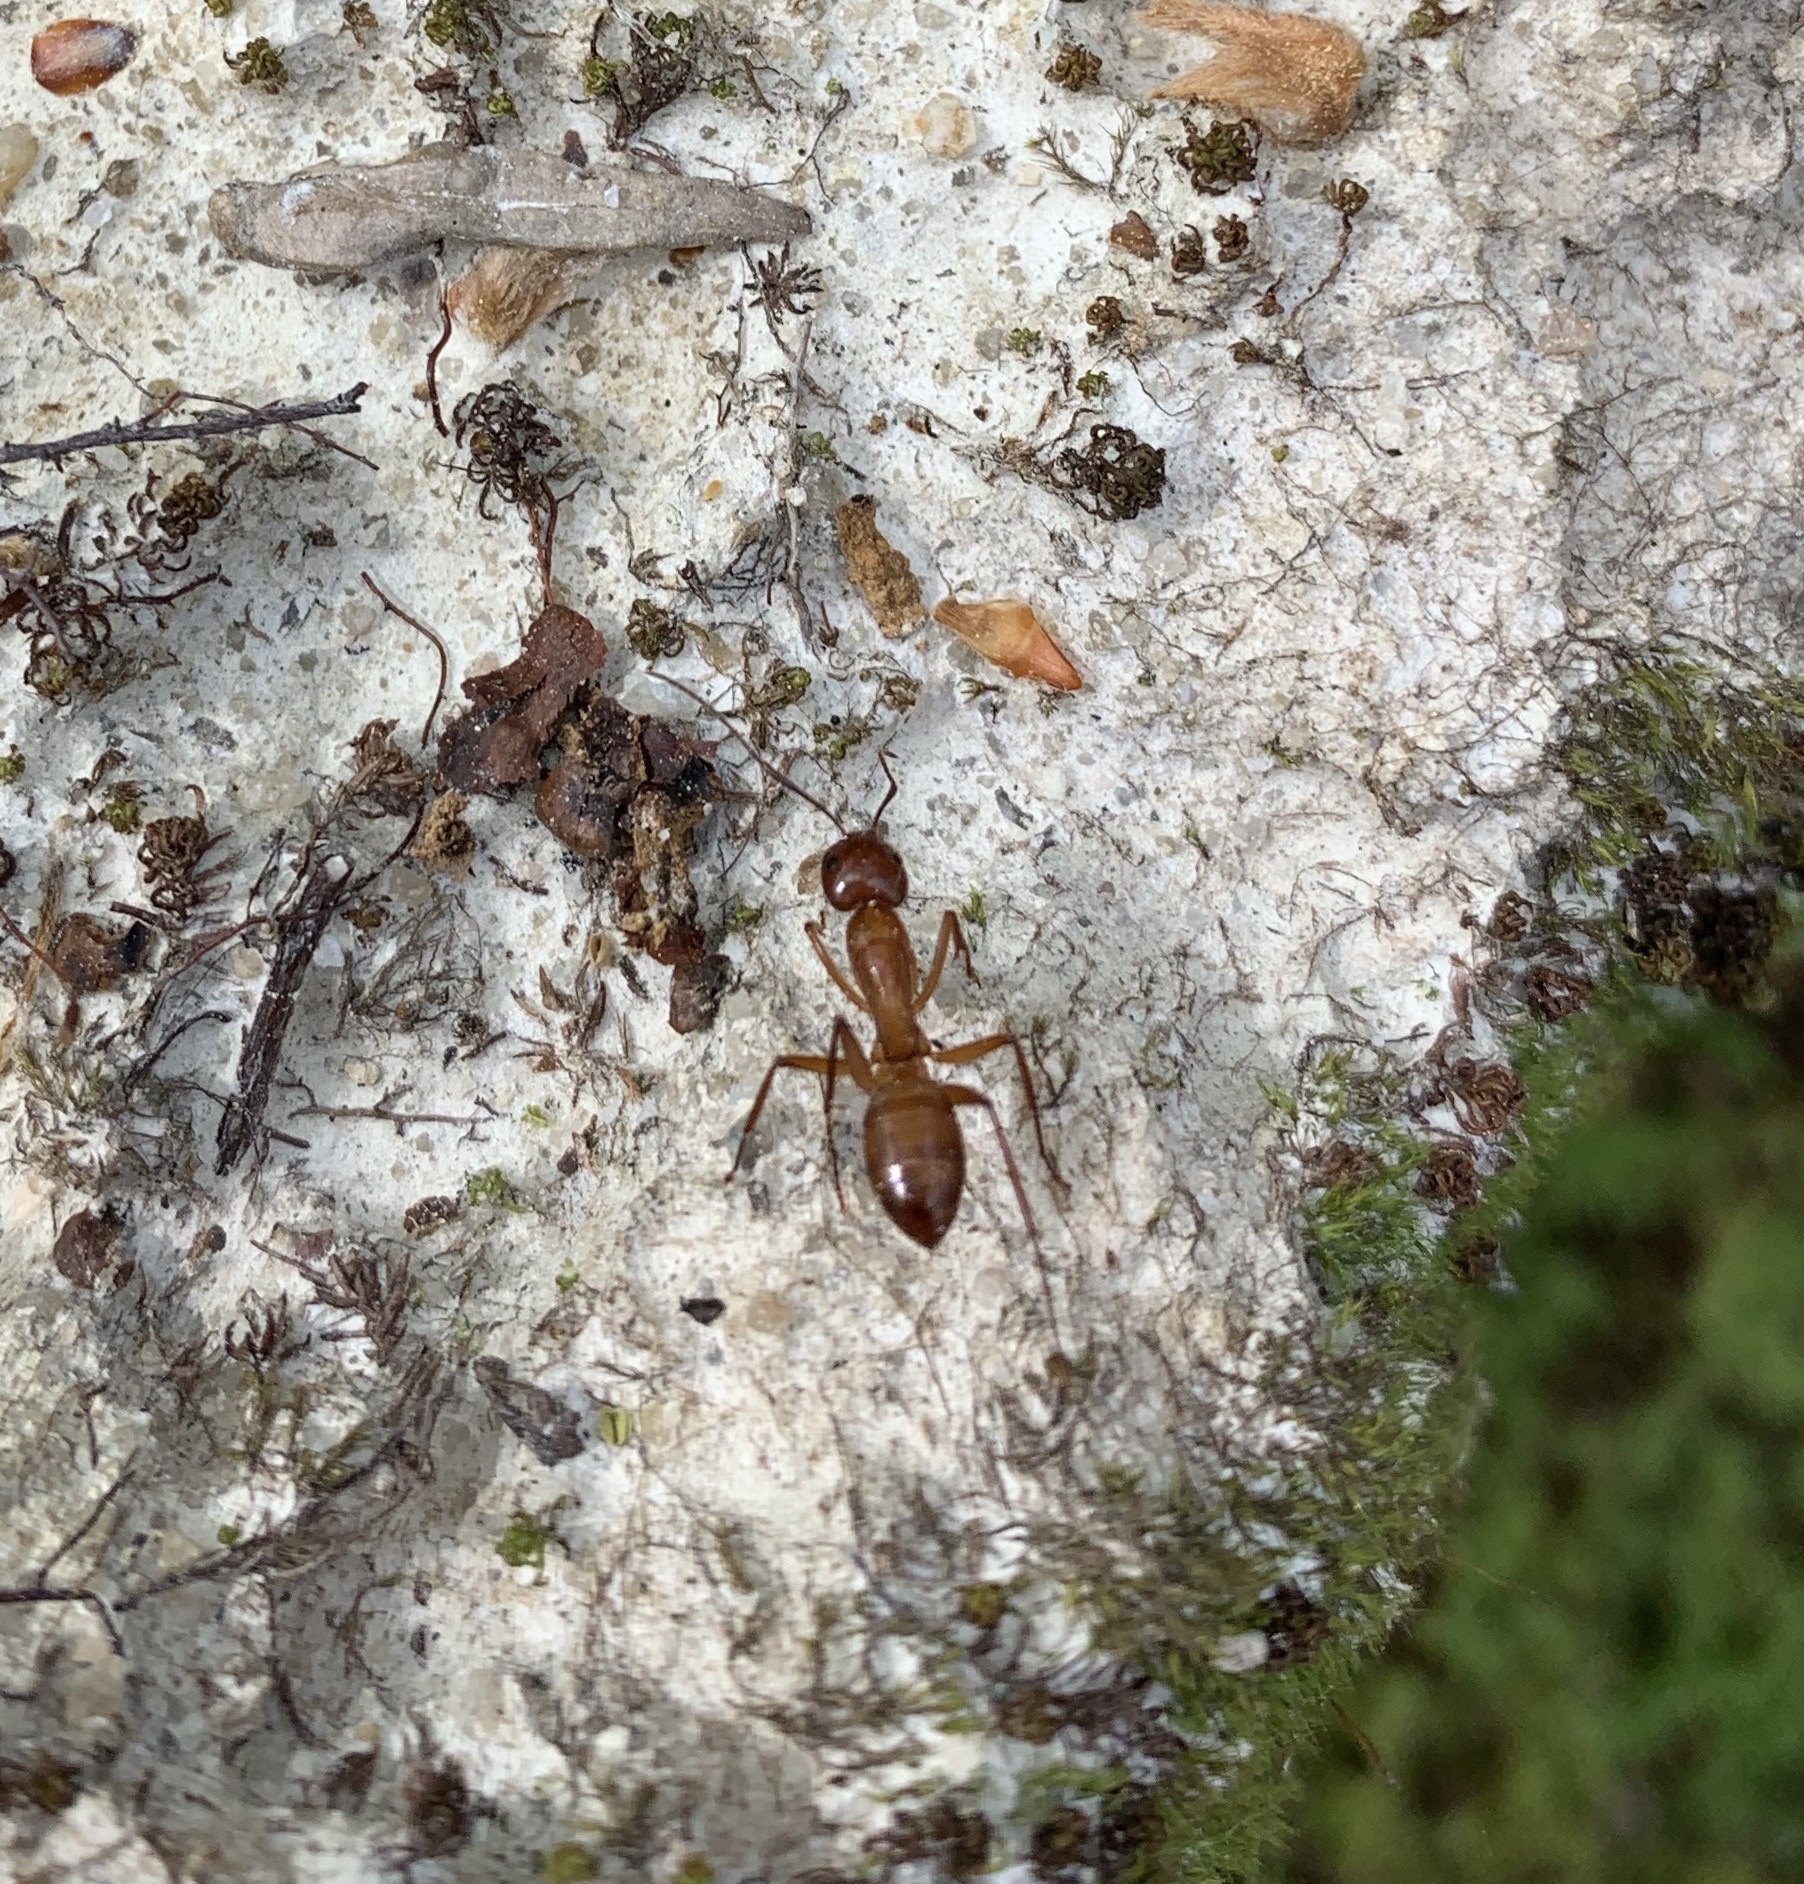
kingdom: Animalia
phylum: Arthropoda
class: Insecta
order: Hymenoptera
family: Formicidae
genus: Camponotus
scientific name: Camponotus castaneus
